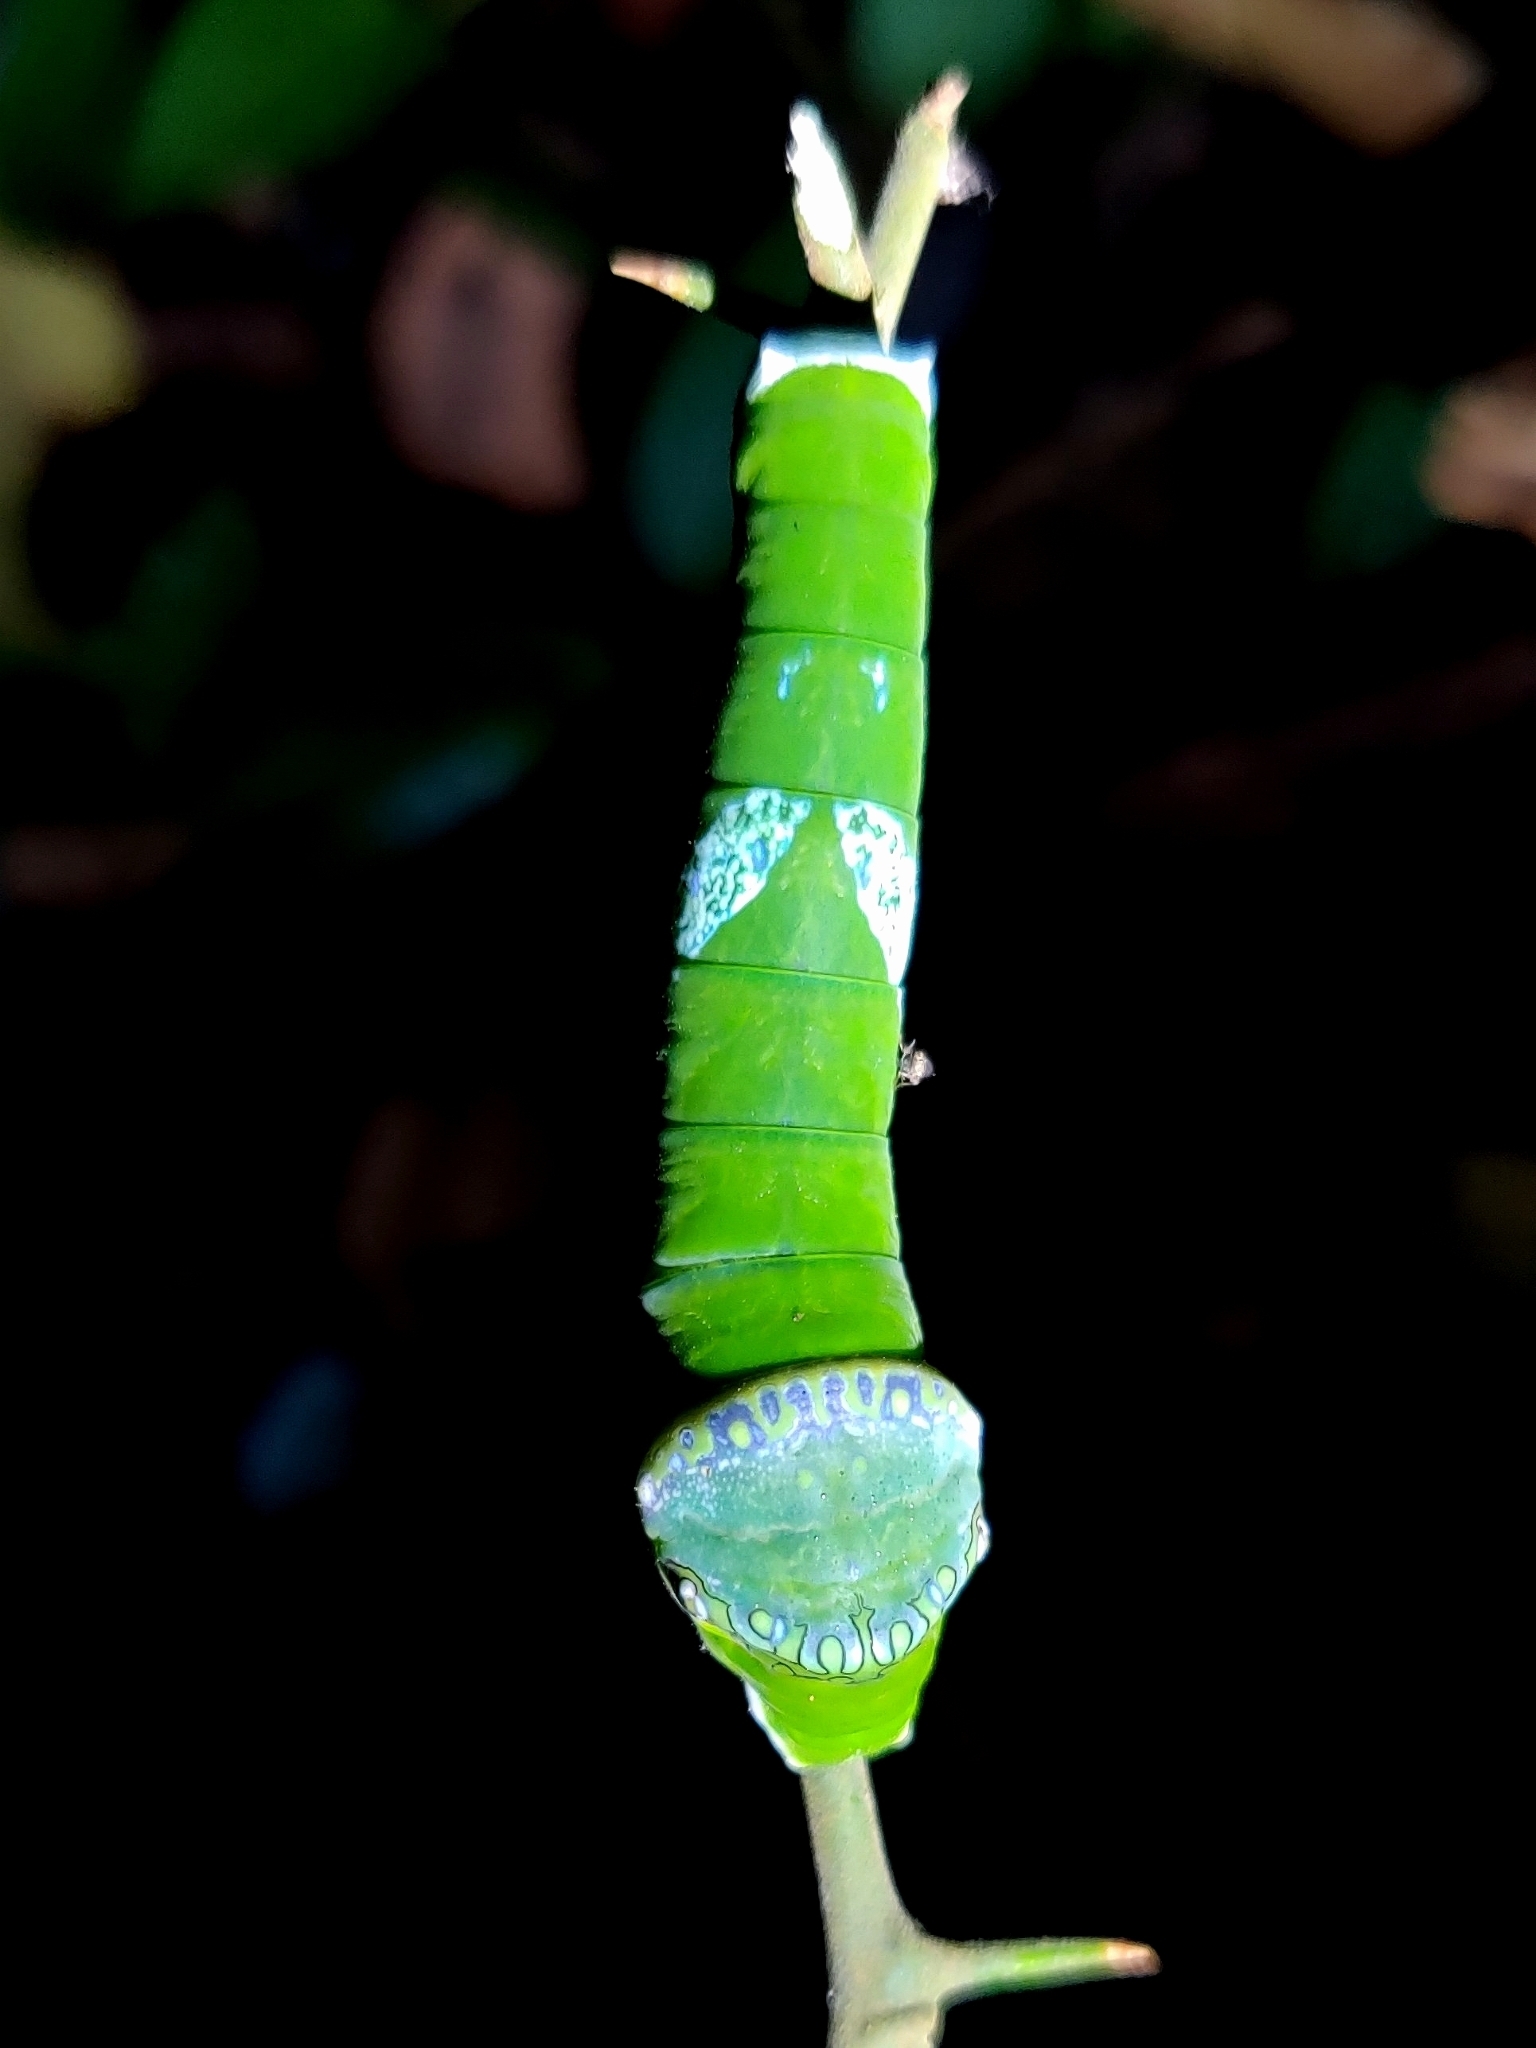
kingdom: Animalia
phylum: Arthropoda
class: Insecta
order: Lepidoptera
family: Papilionidae
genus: Papilio
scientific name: Papilio memnon
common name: Great mormon
